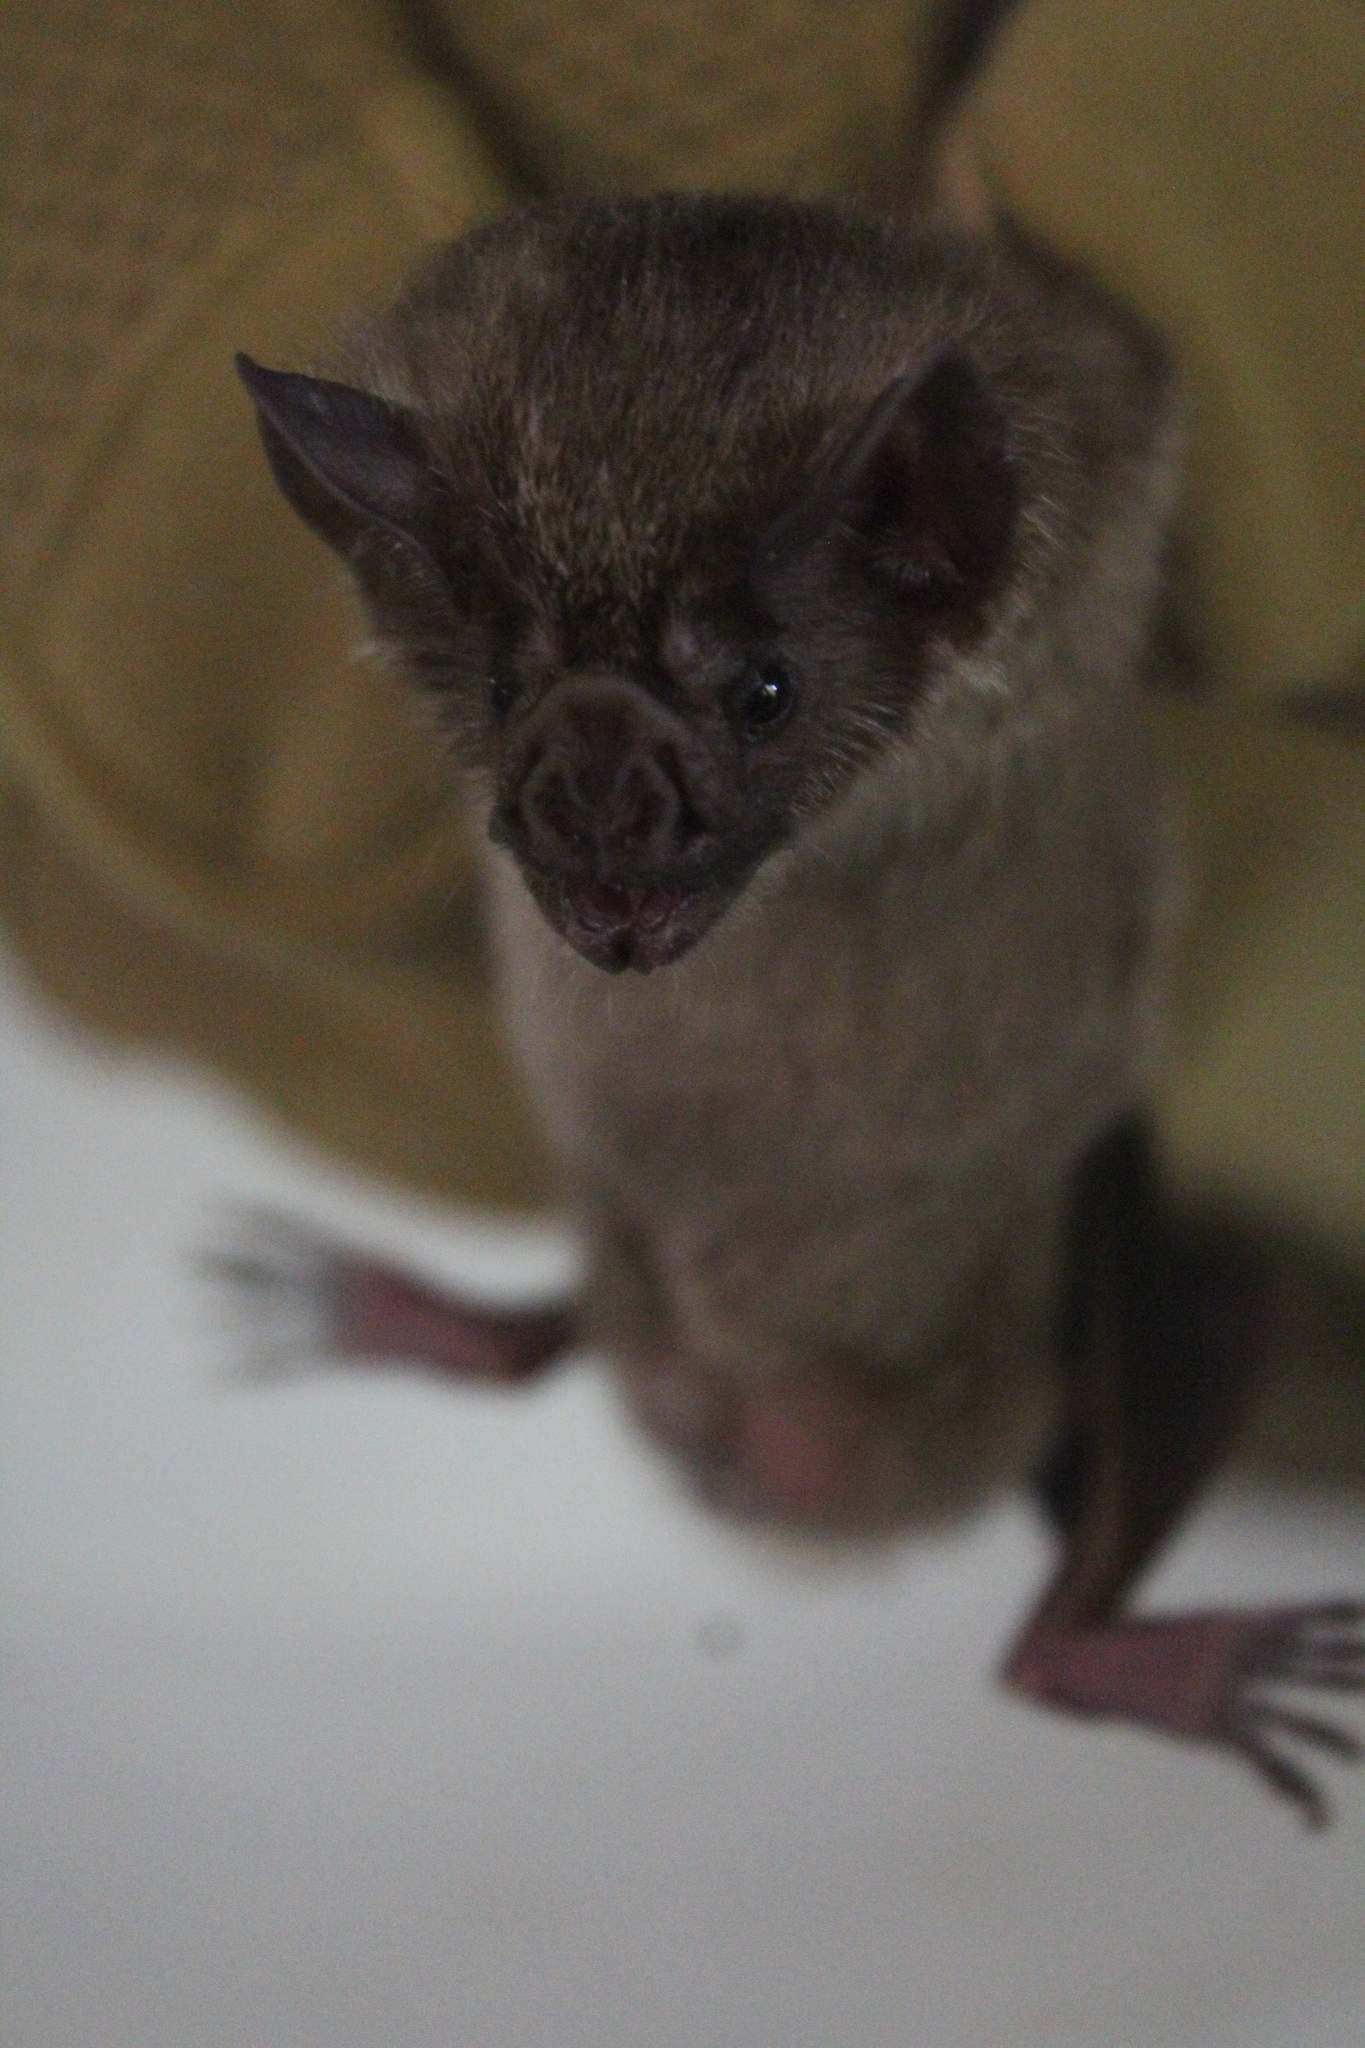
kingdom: Animalia
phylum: Chordata
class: Mammalia
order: Chiroptera
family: Phyllostomidae
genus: Desmodus
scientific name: Desmodus rotundus
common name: Common vampire bat
